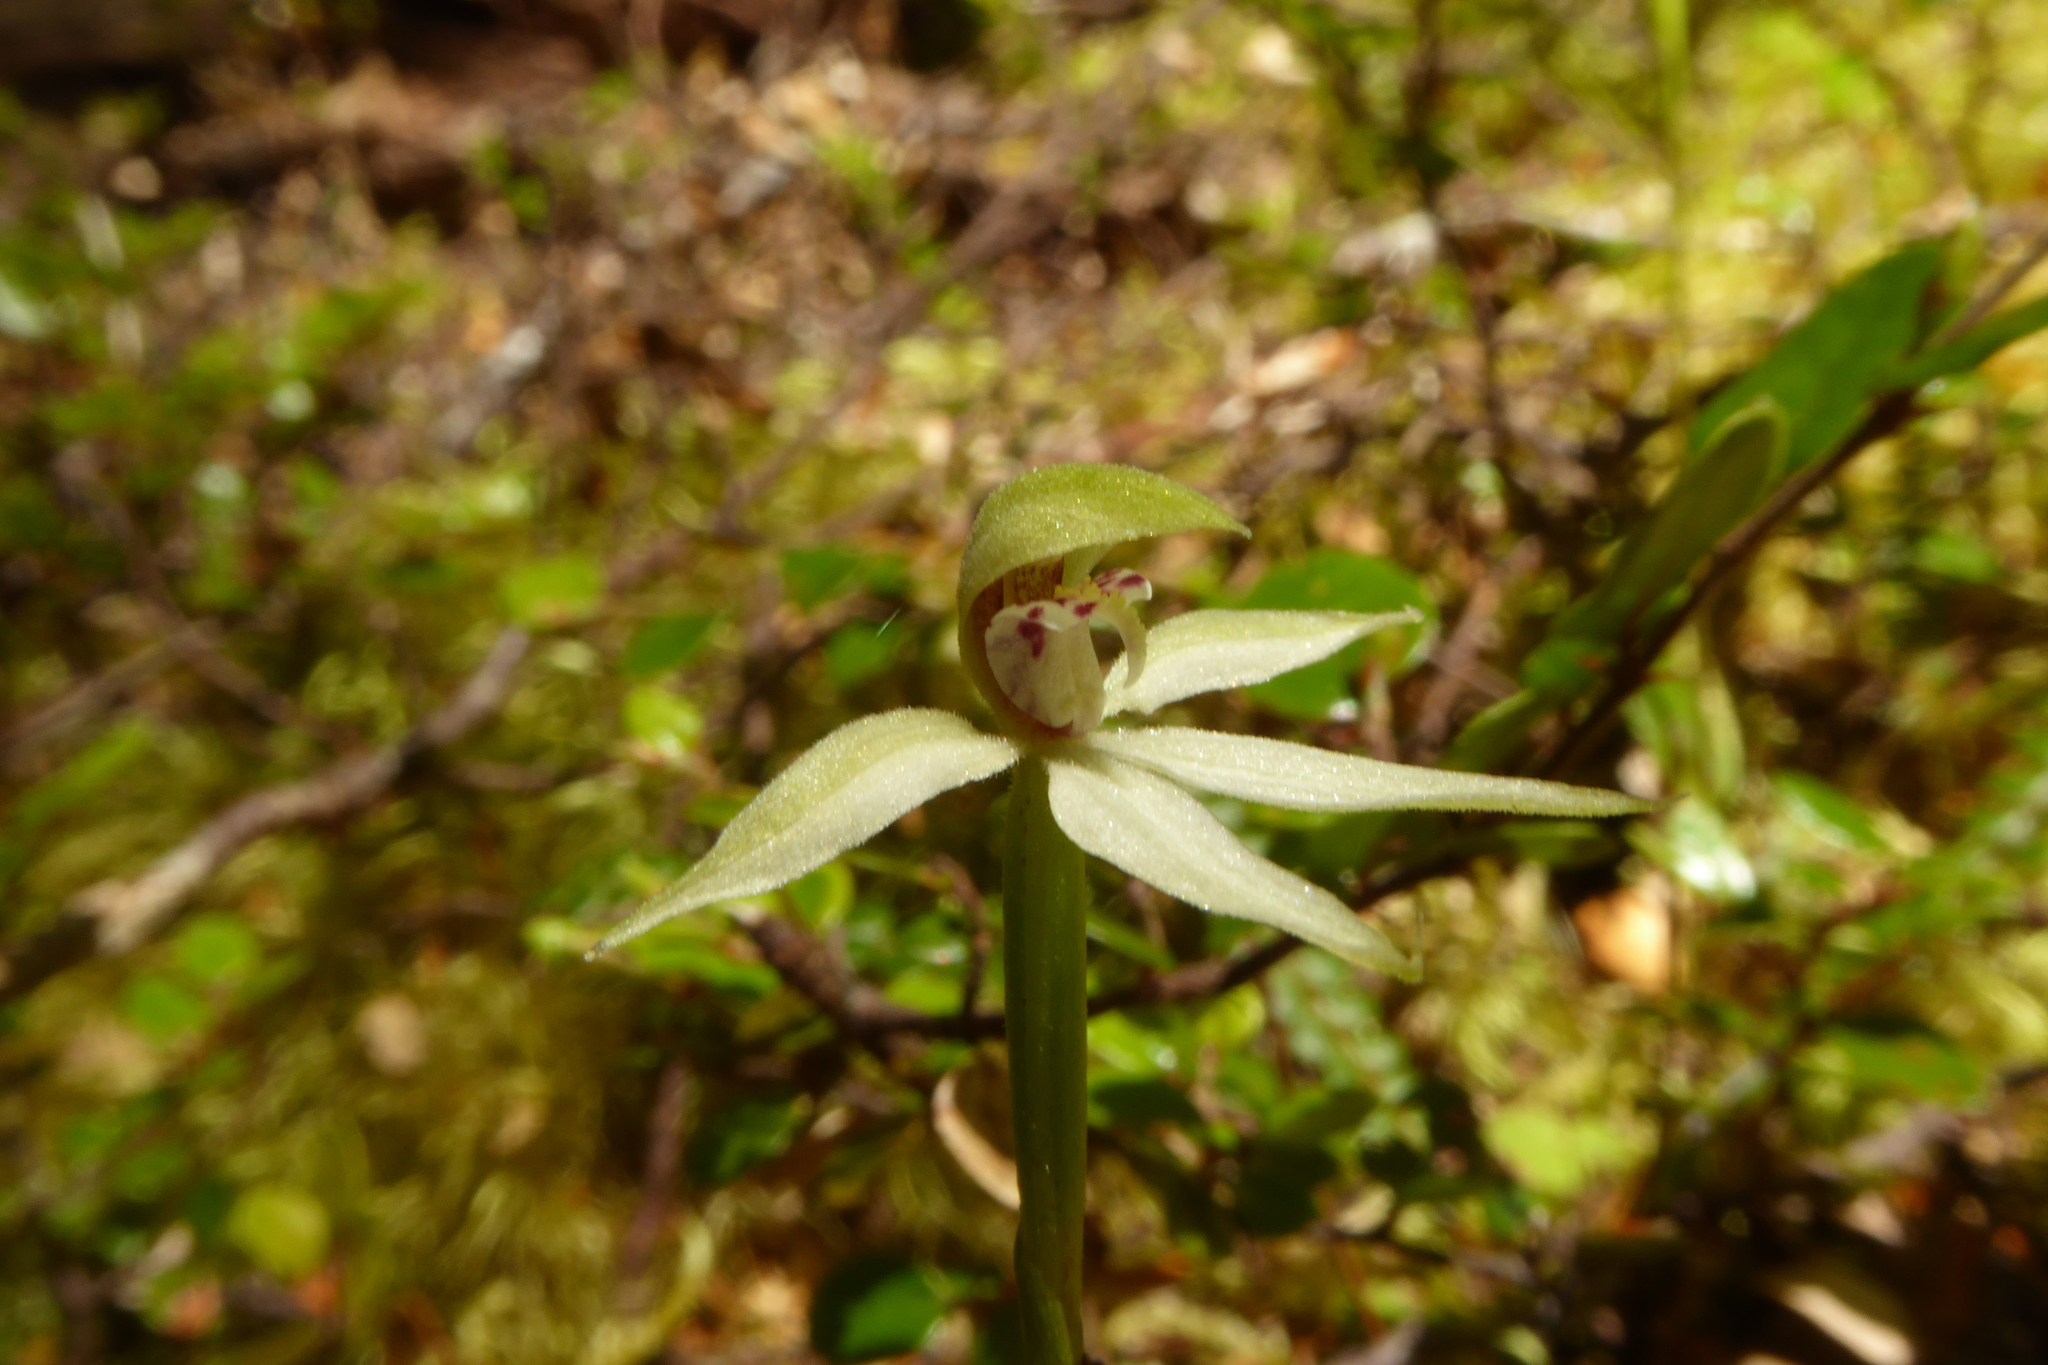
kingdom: Plantae
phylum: Tracheophyta
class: Liliopsida
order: Asparagales
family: Orchidaceae
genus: Adenochilus
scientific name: Adenochilus gracilis
